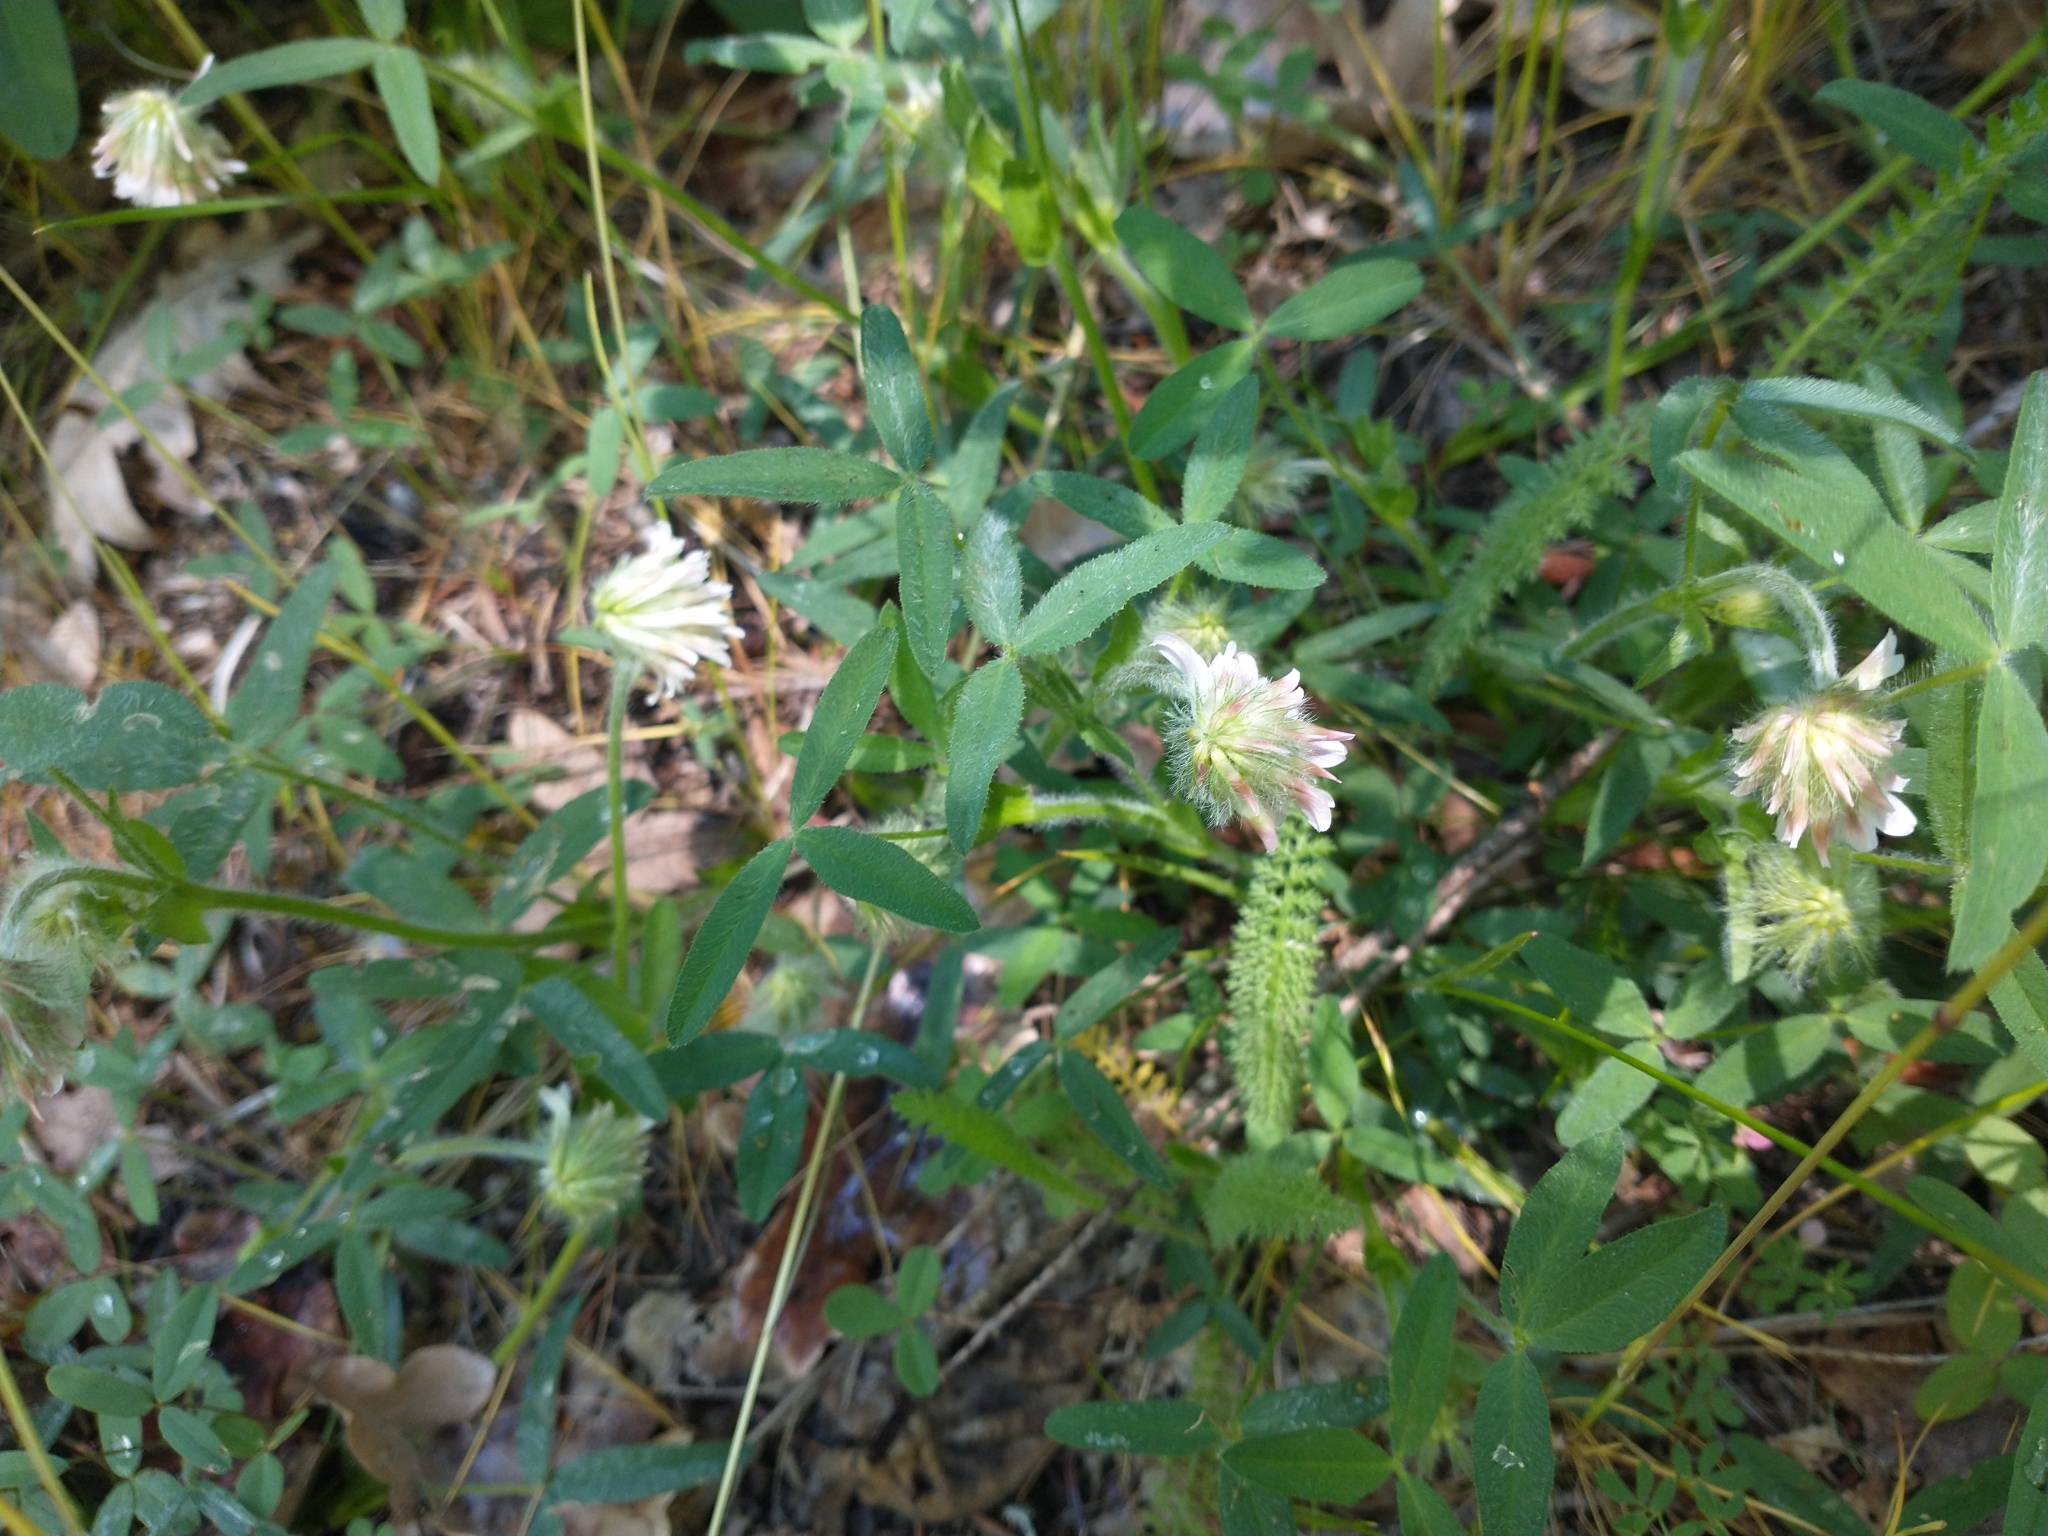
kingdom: Plantae
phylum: Tracheophyta
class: Magnoliopsida
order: Fabales
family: Fabaceae
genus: Trifolium
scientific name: Trifolium eriocephalum
